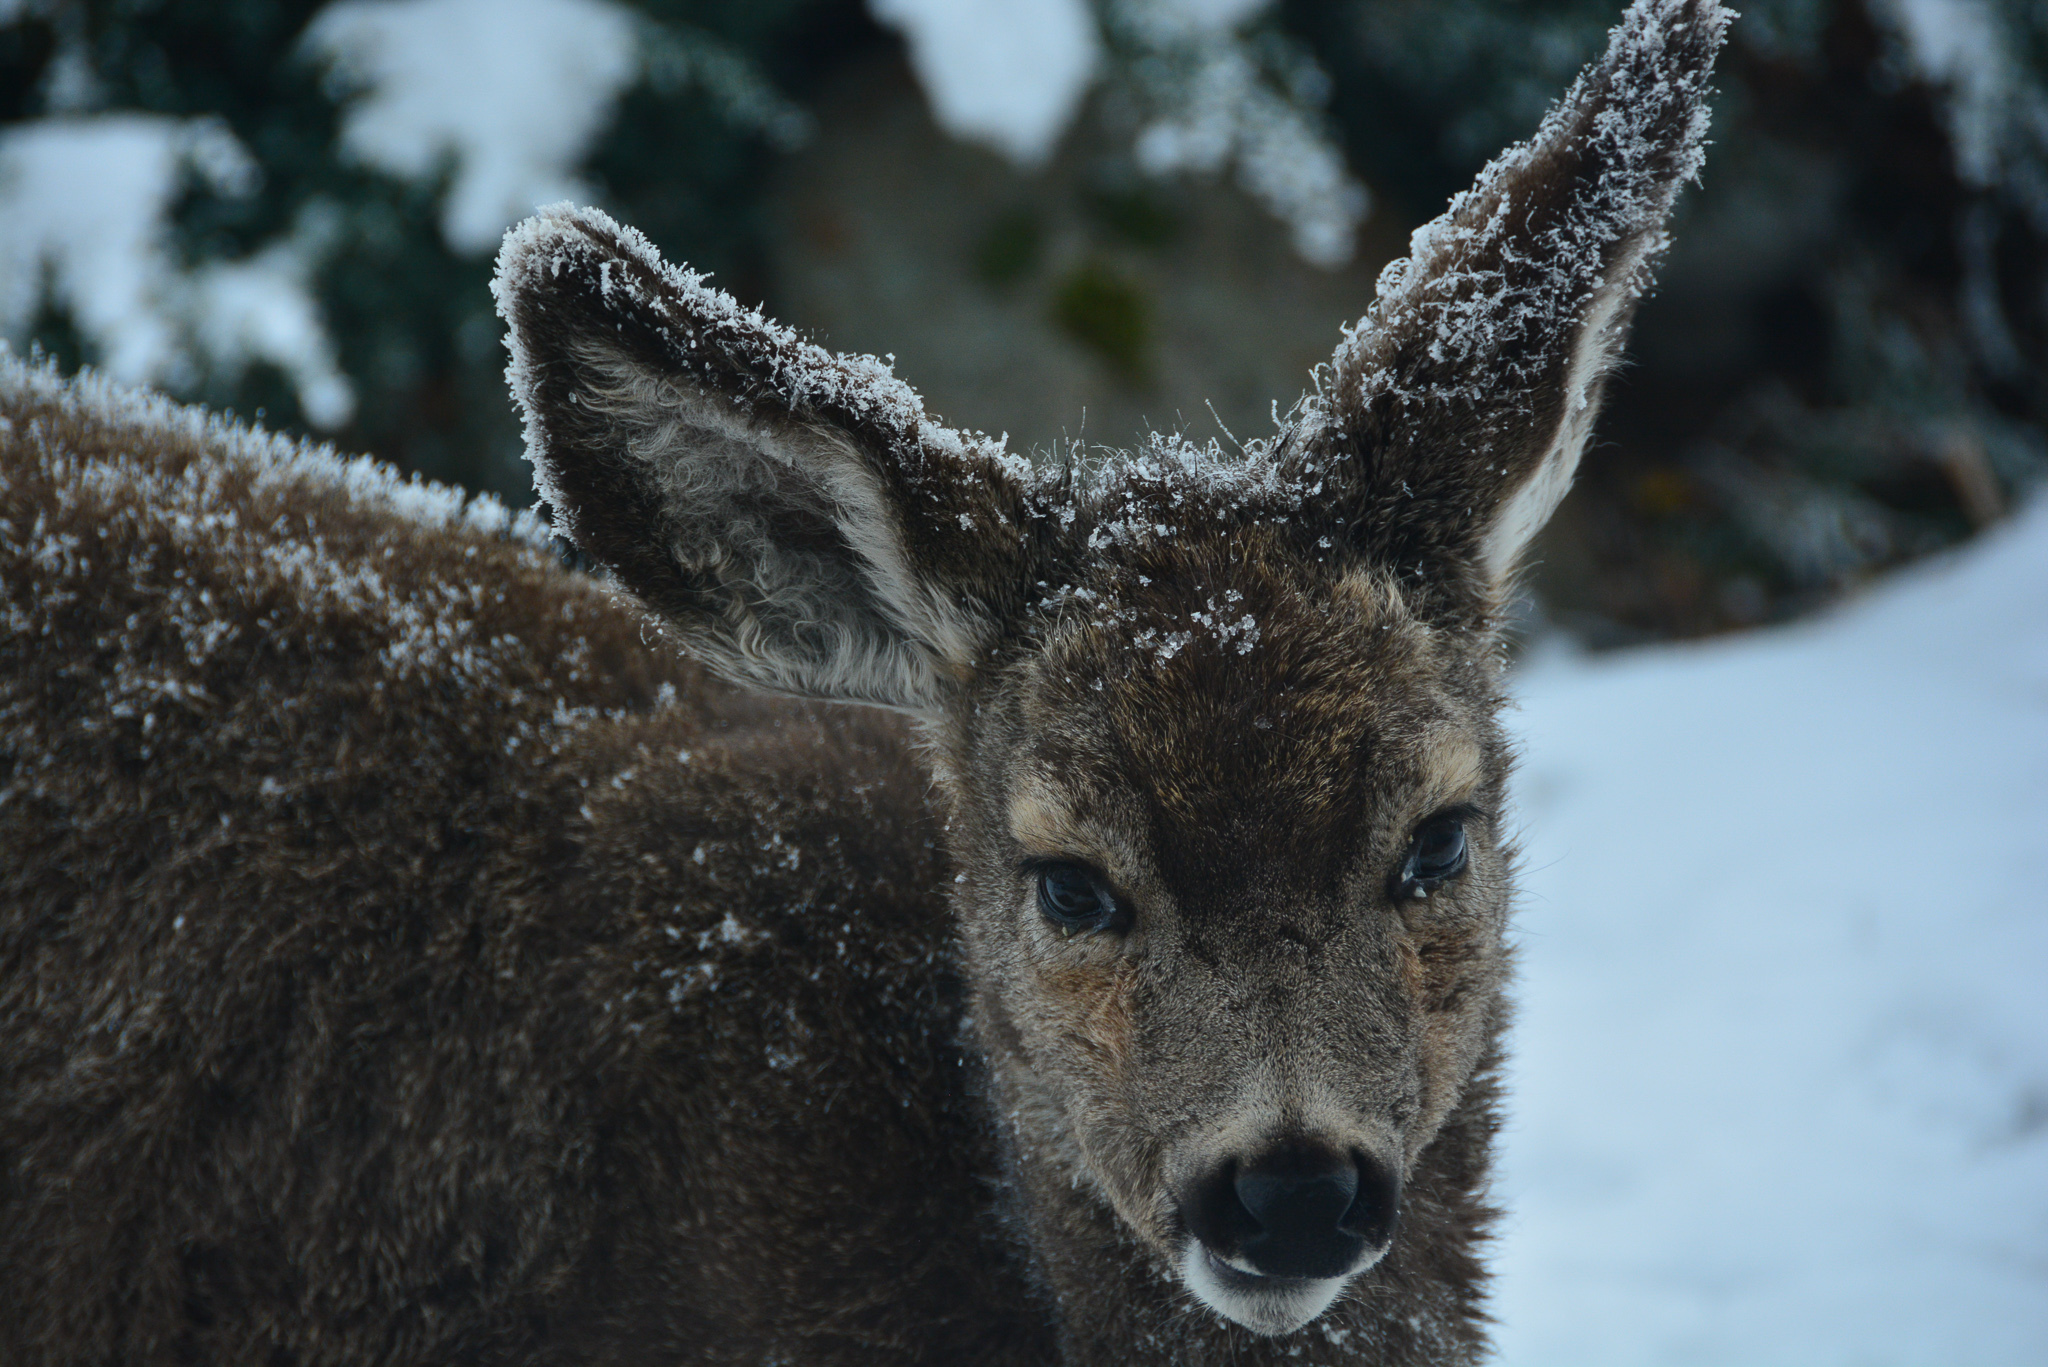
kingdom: Animalia
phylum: Chordata
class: Mammalia
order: Artiodactyla
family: Cervidae
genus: Odocoileus
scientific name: Odocoileus hemionus
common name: Mule deer
